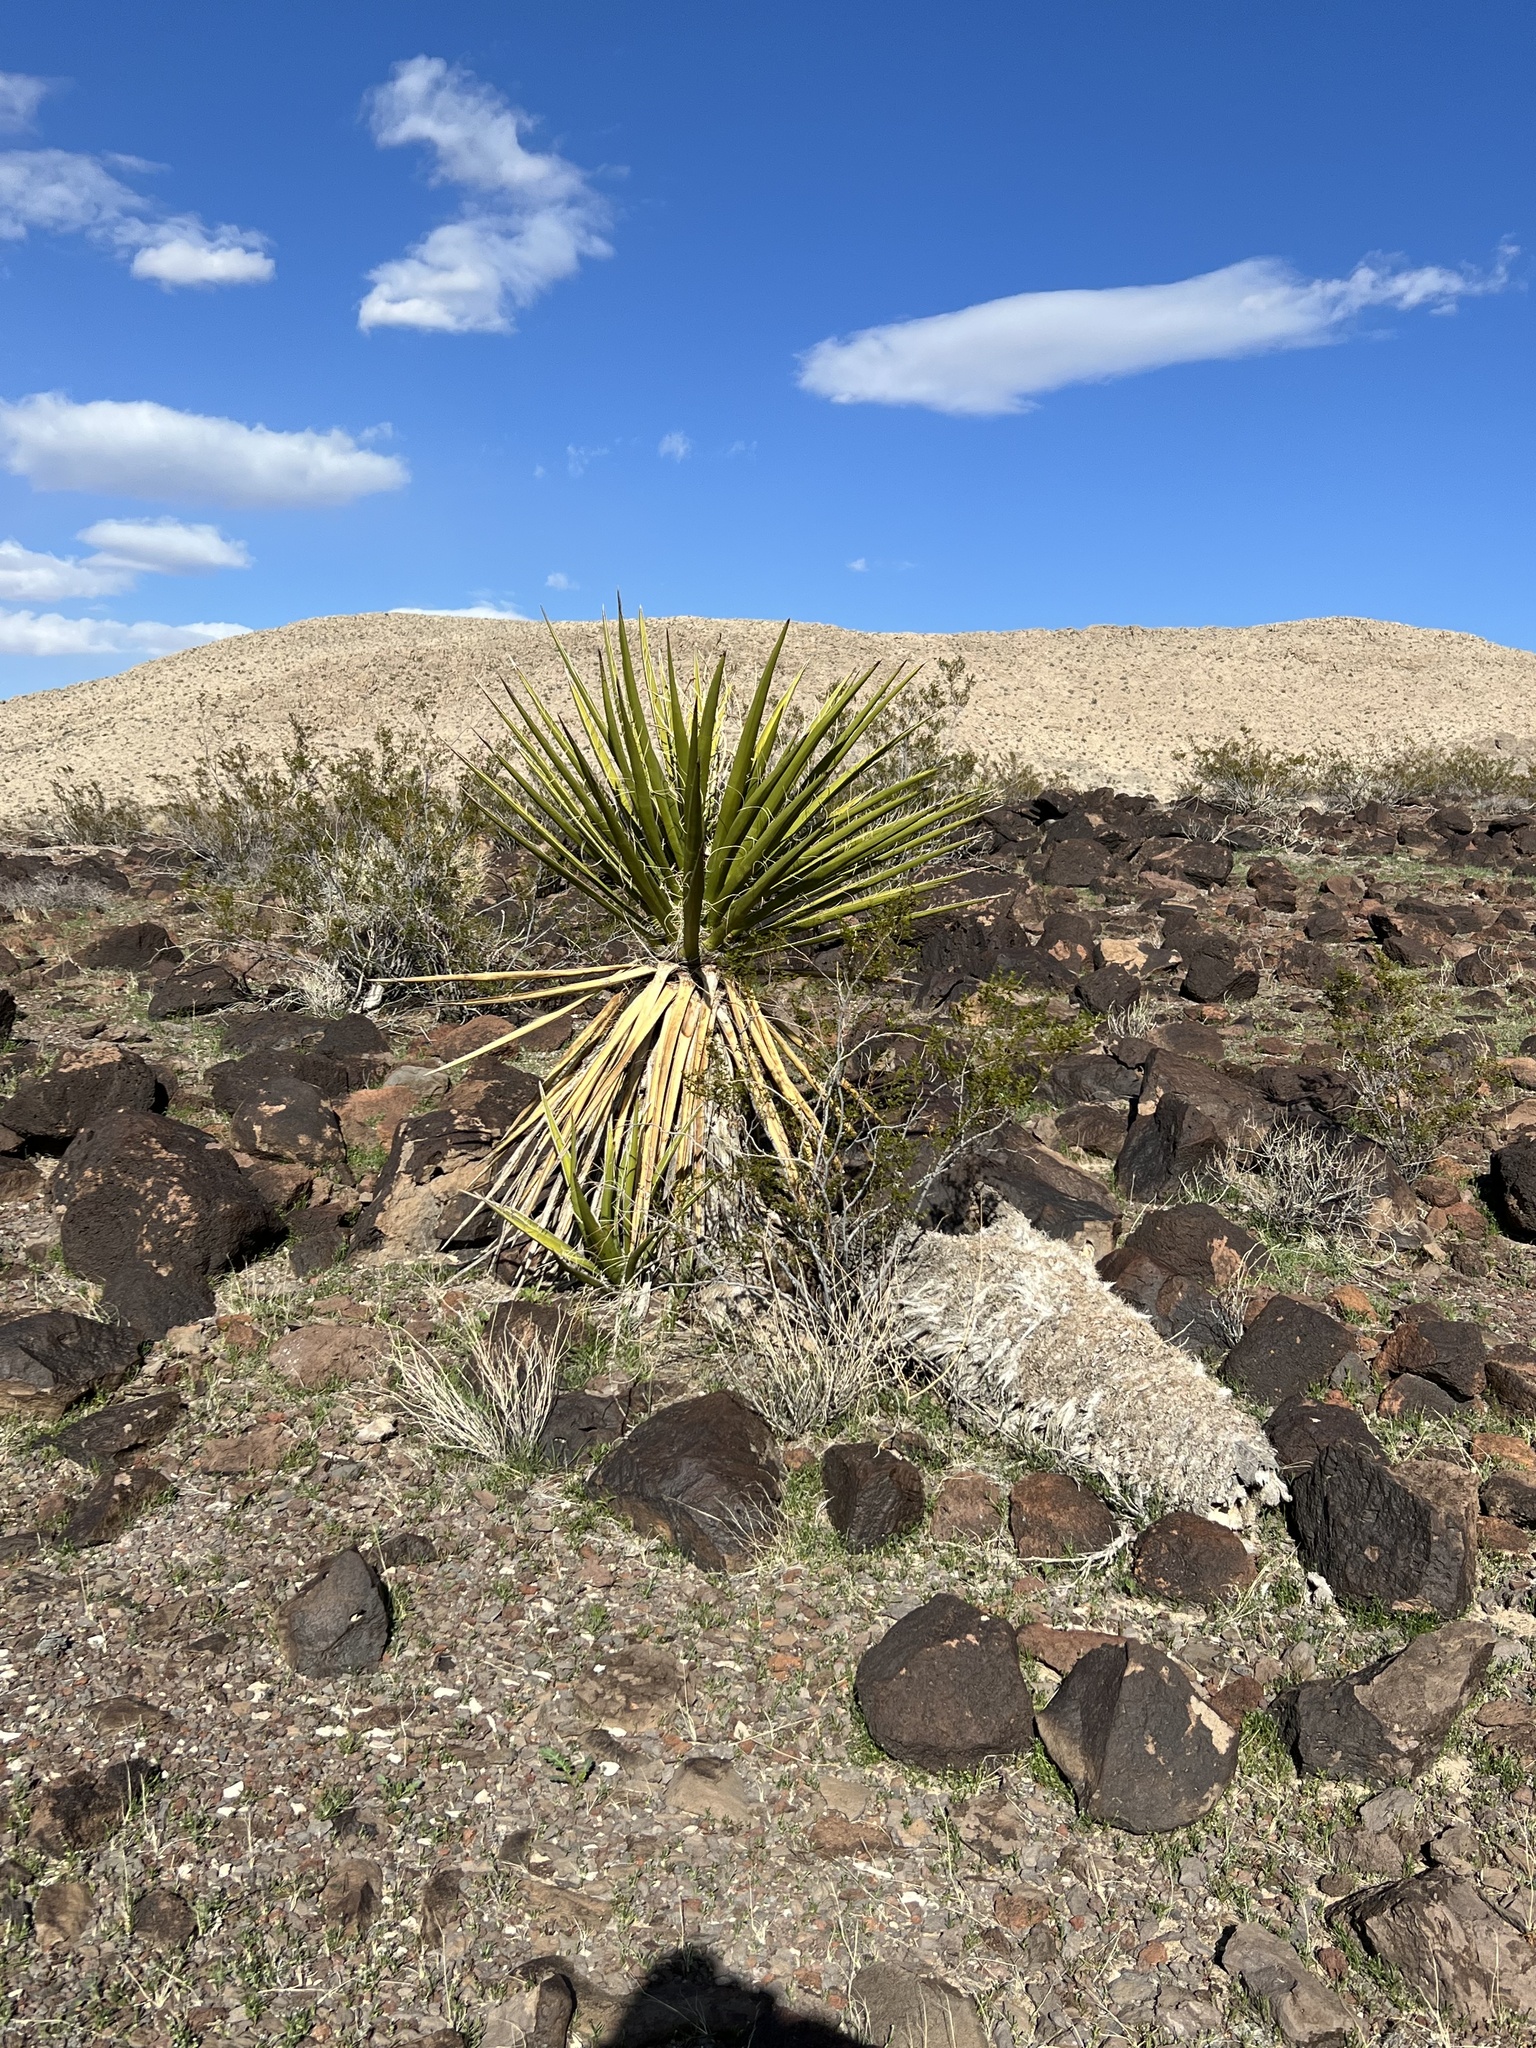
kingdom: Plantae
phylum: Tracheophyta
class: Liliopsida
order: Asparagales
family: Asparagaceae
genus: Yucca
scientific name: Yucca schidigera
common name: Mojave yucca
